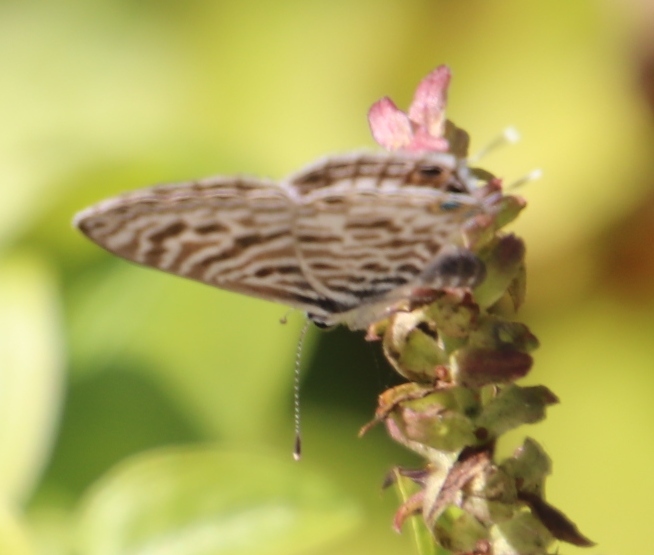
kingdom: Animalia
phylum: Arthropoda
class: Insecta
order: Lepidoptera
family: Lycaenidae
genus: Leptotes
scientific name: Leptotes
